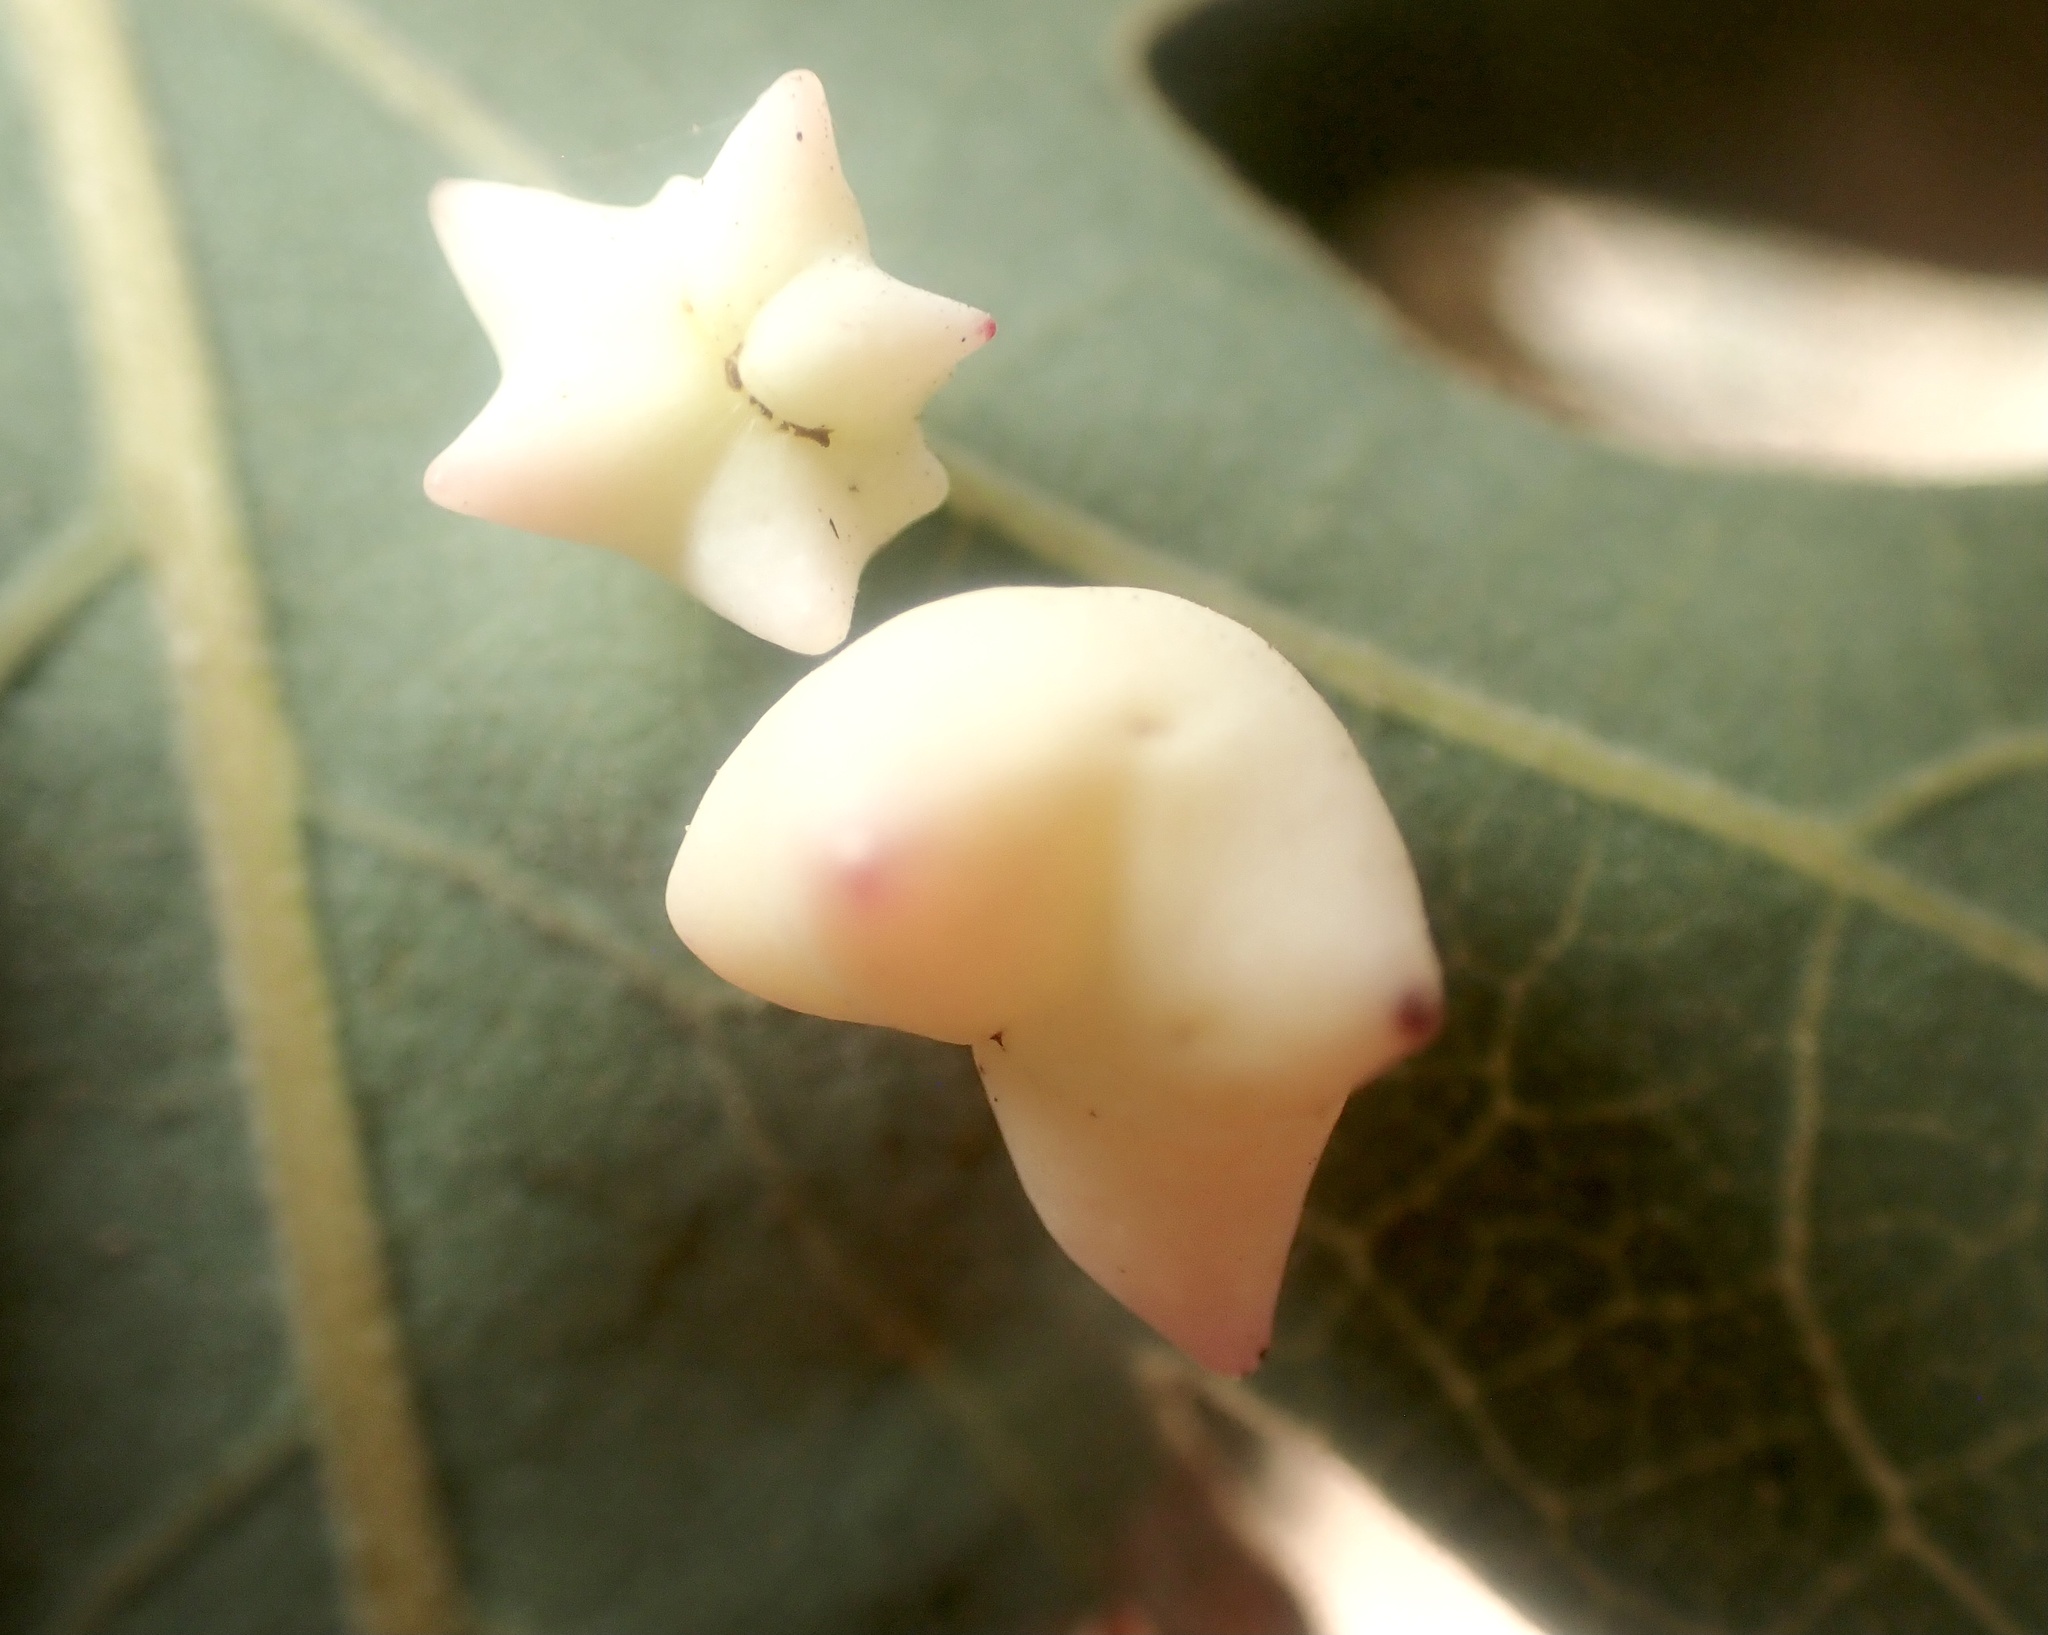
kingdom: Animalia
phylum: Arthropoda
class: Insecta
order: Hymenoptera
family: Cynipidae
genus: Cynips
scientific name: Cynips douglasi
